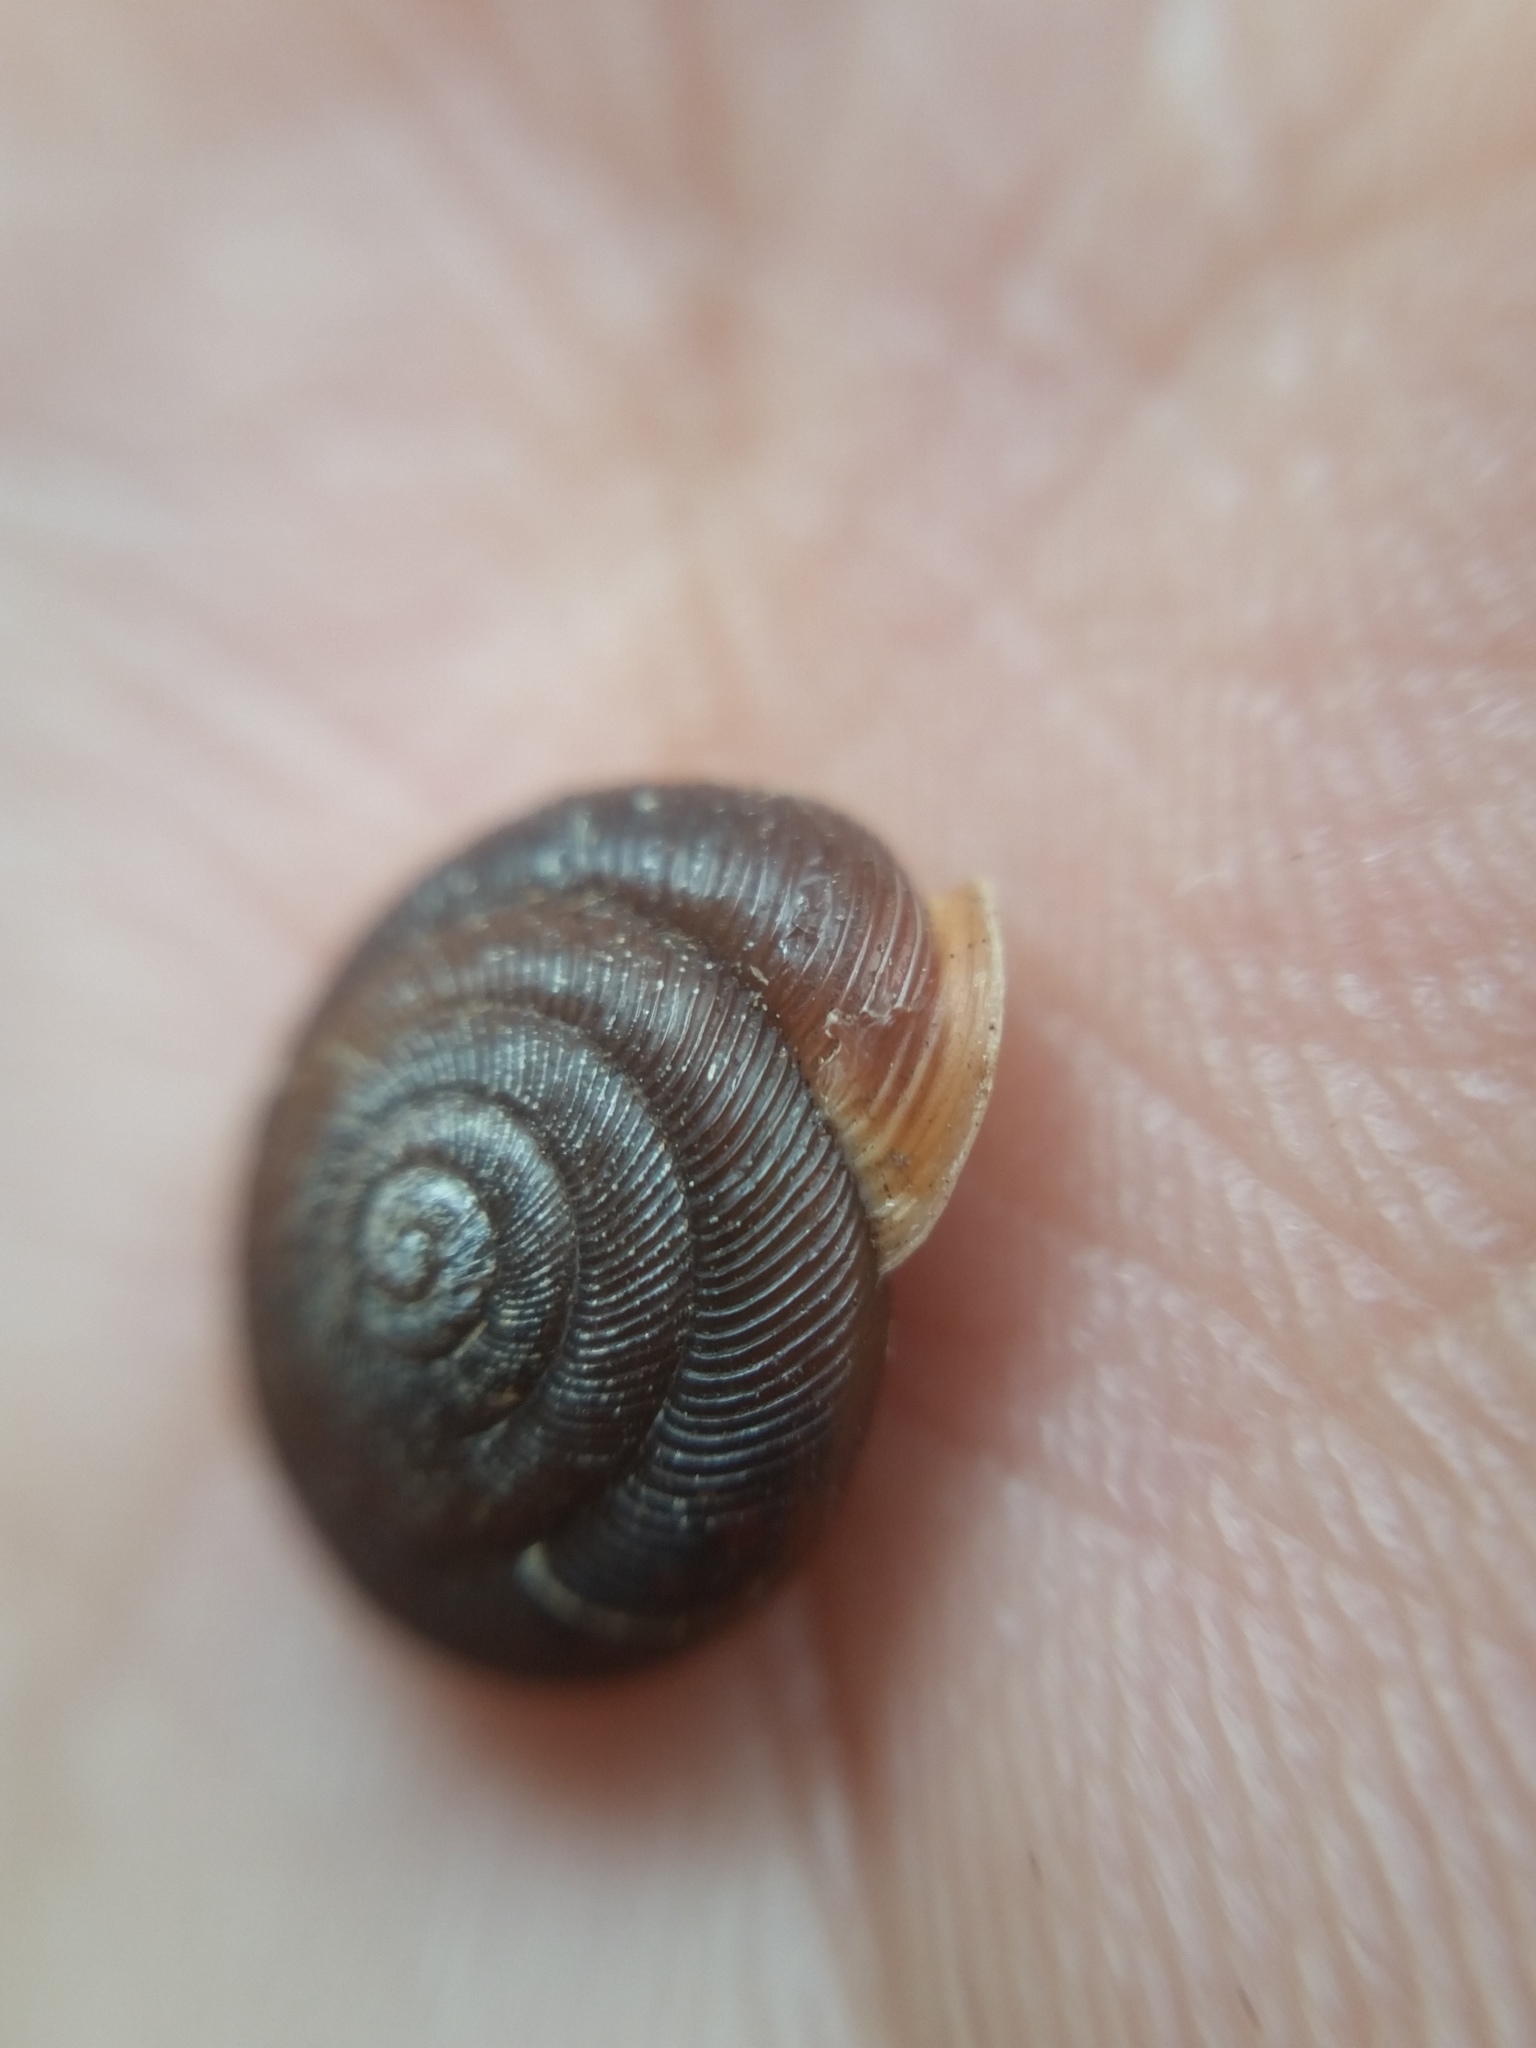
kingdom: Animalia
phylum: Mollusca
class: Gastropoda
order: Stylommatophora
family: Polygyridae
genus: Triodopsis
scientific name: Triodopsis hopetonensis
